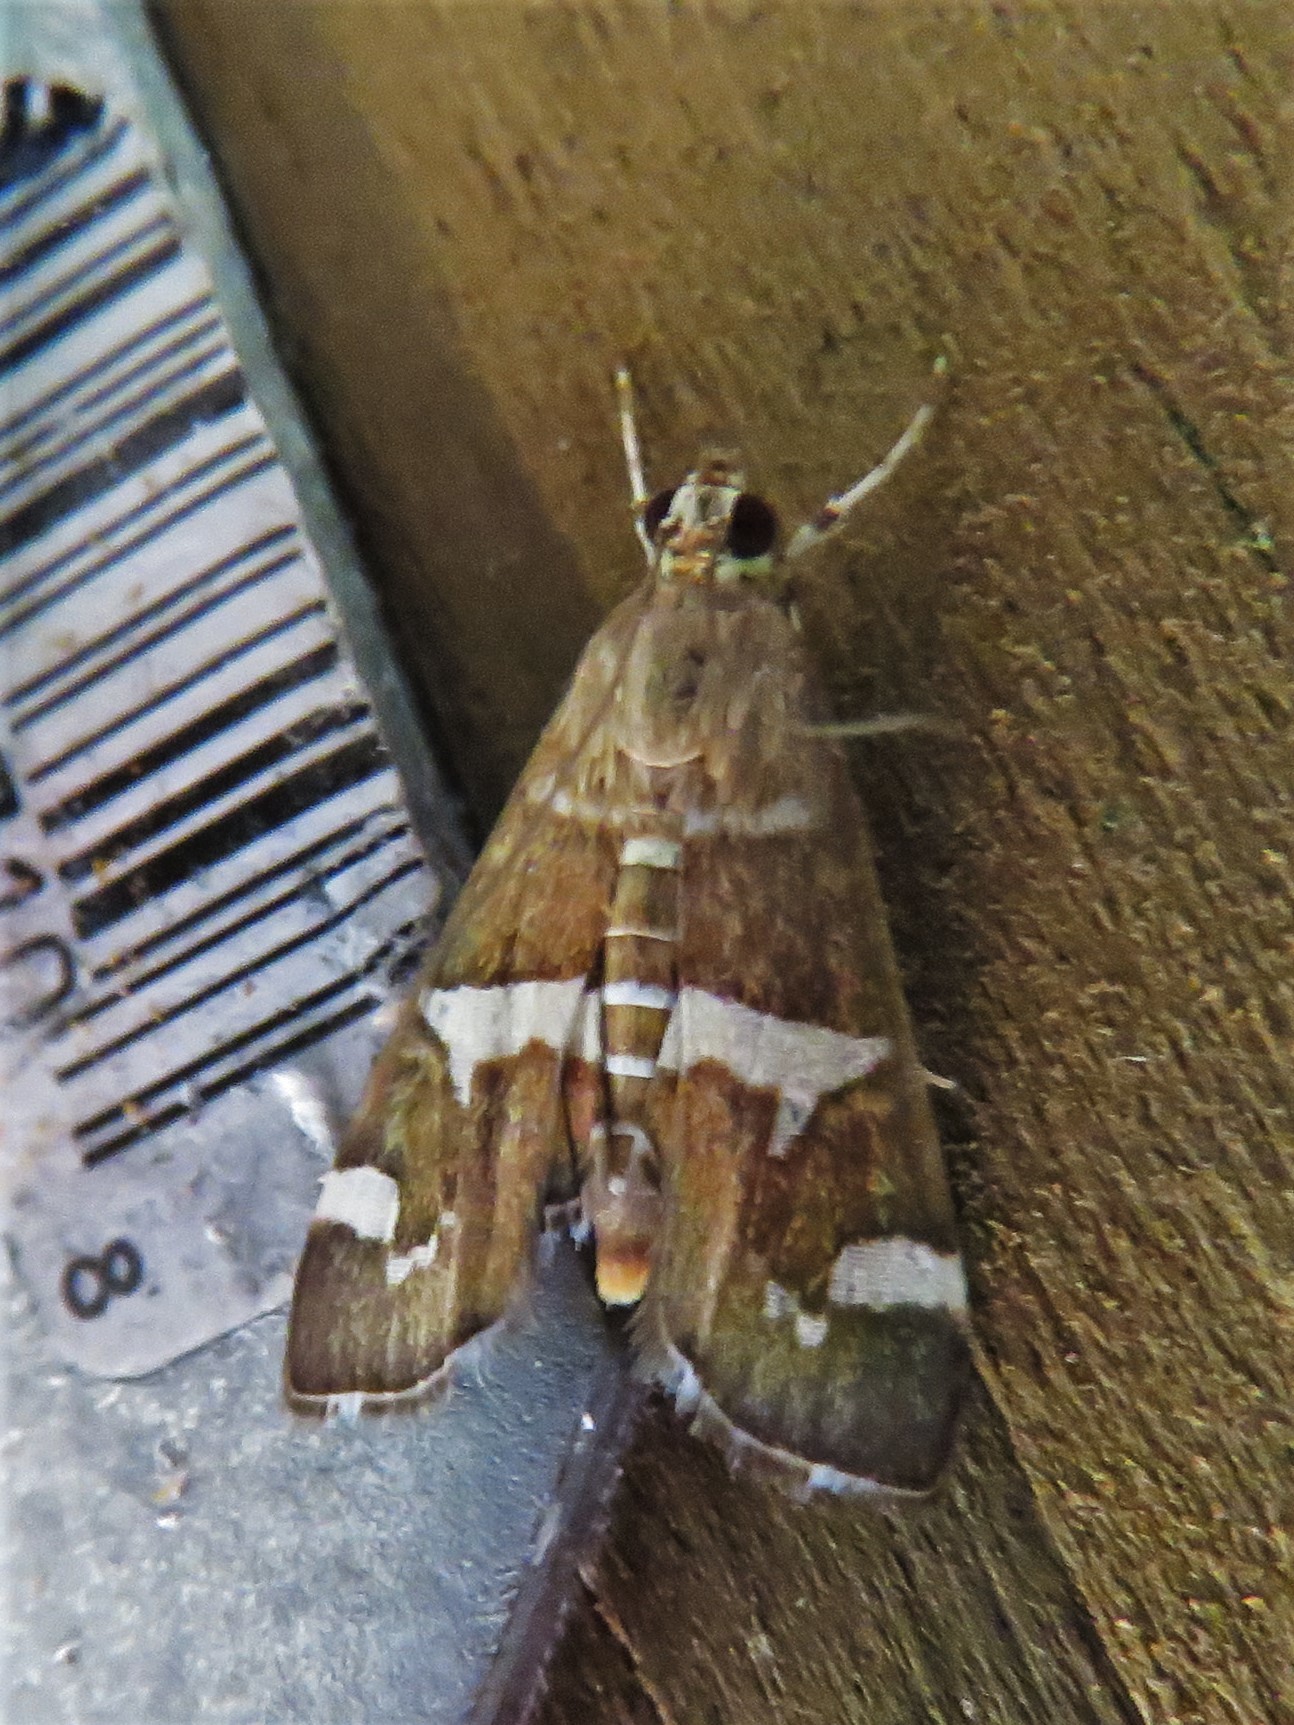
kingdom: Animalia
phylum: Arthropoda
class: Insecta
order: Lepidoptera
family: Crambidae
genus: Spoladea
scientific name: Spoladea recurvalis
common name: Beet webworm moth
